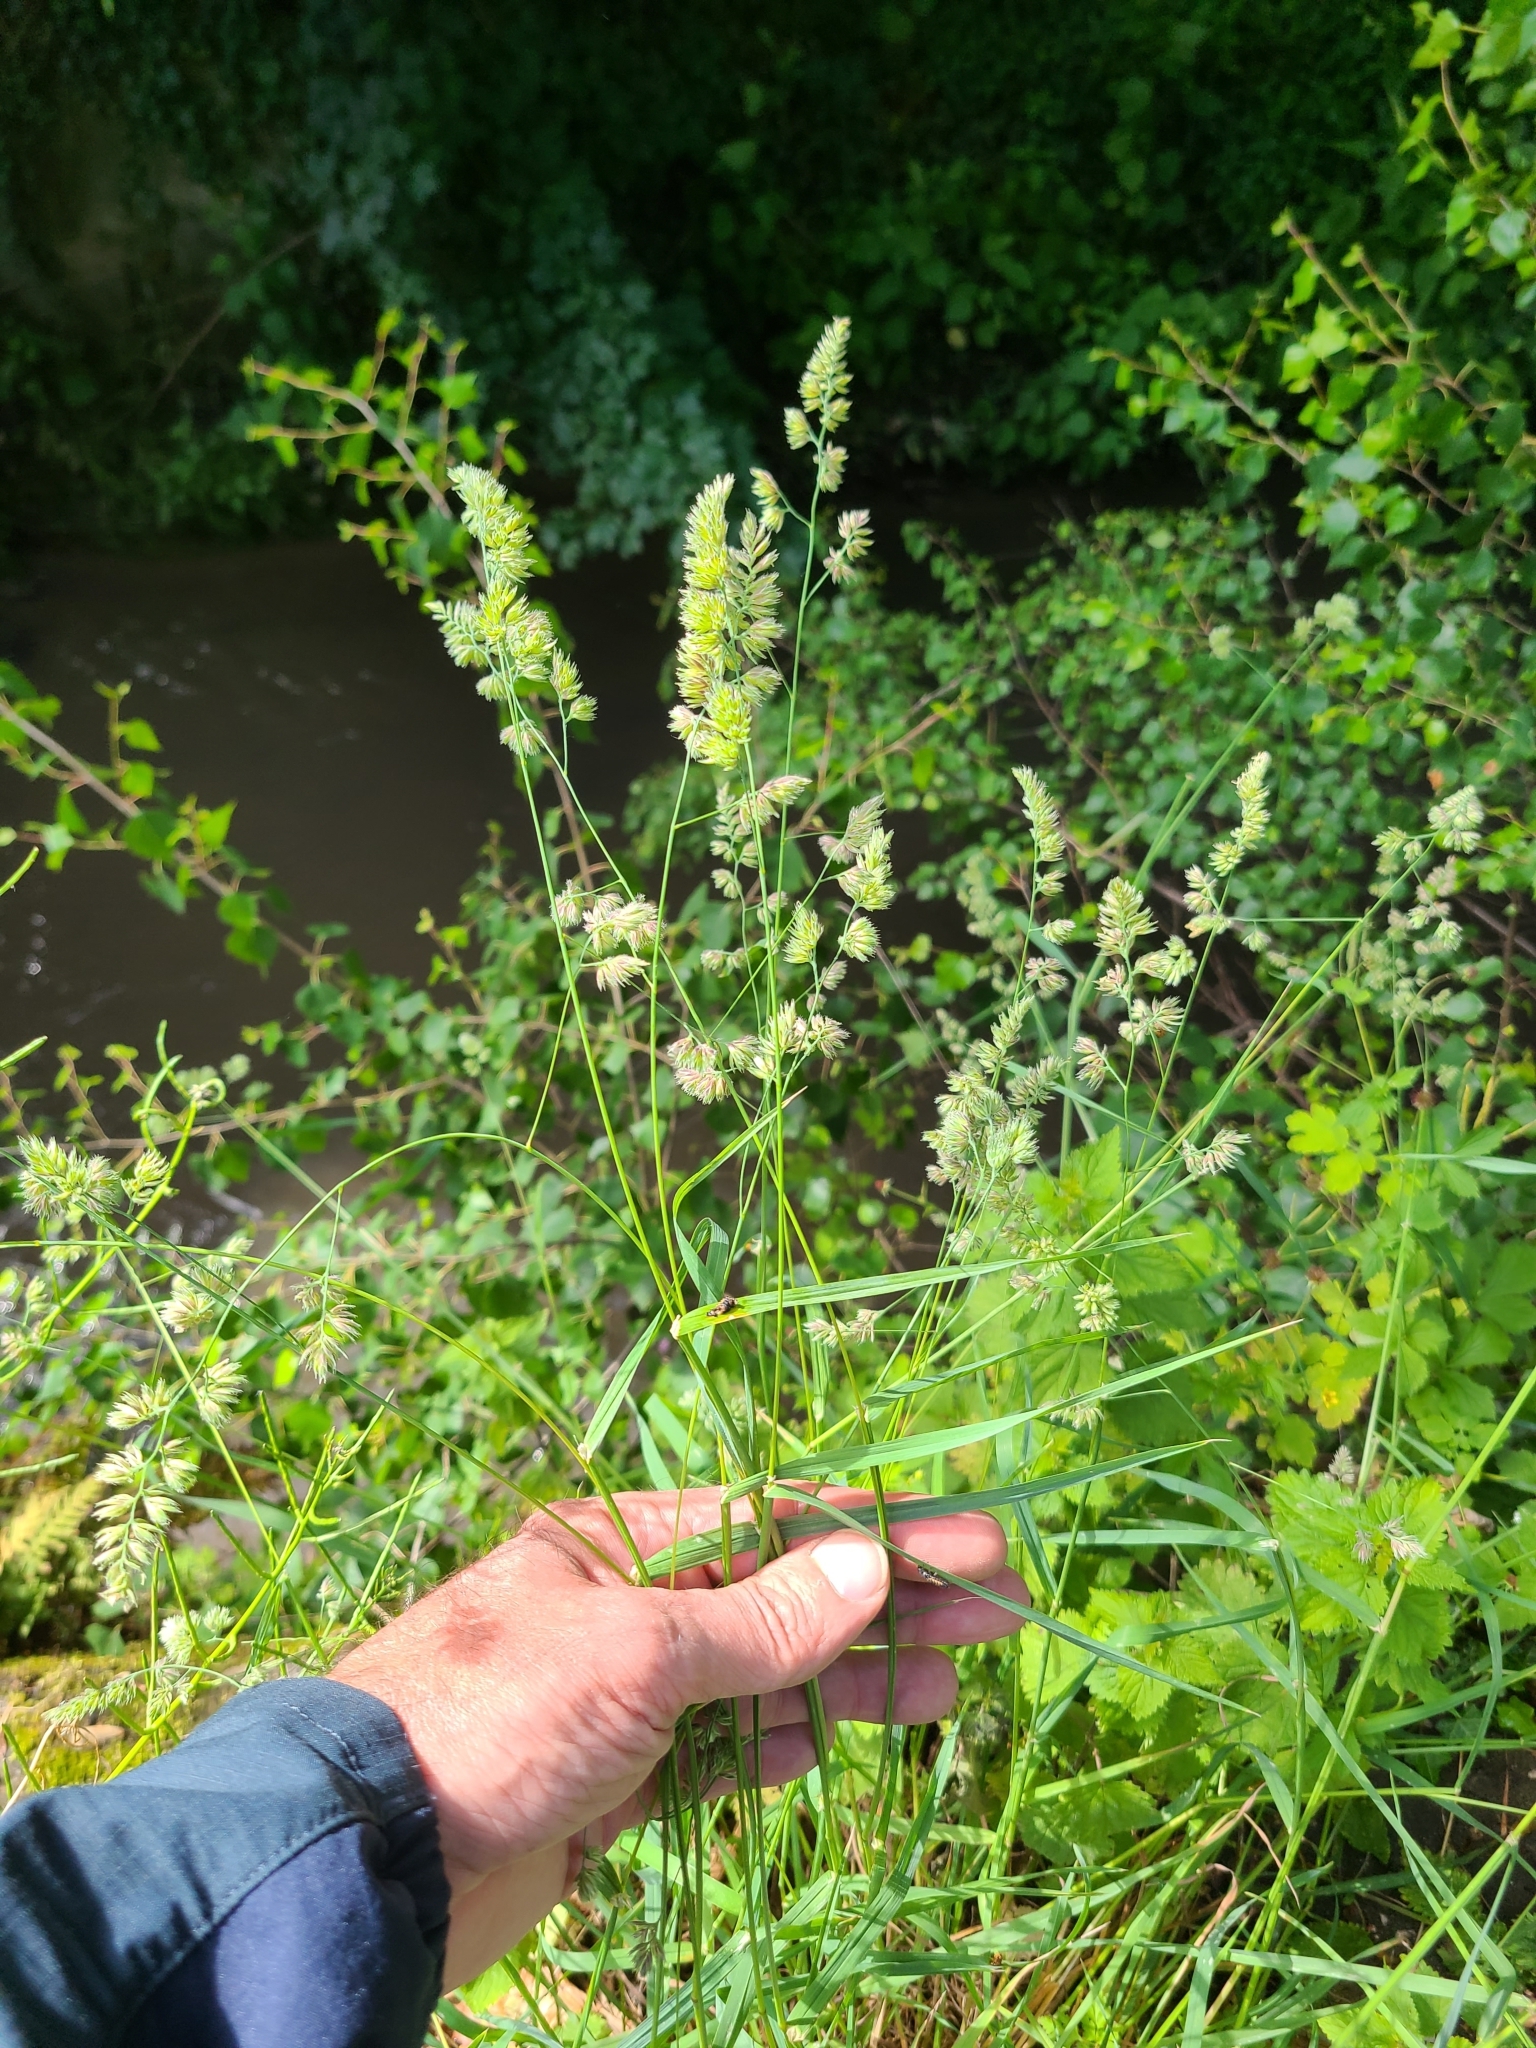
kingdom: Plantae
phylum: Tracheophyta
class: Liliopsida
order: Poales
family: Poaceae
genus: Dactylis
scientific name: Dactylis glomerata
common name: Orchardgrass
